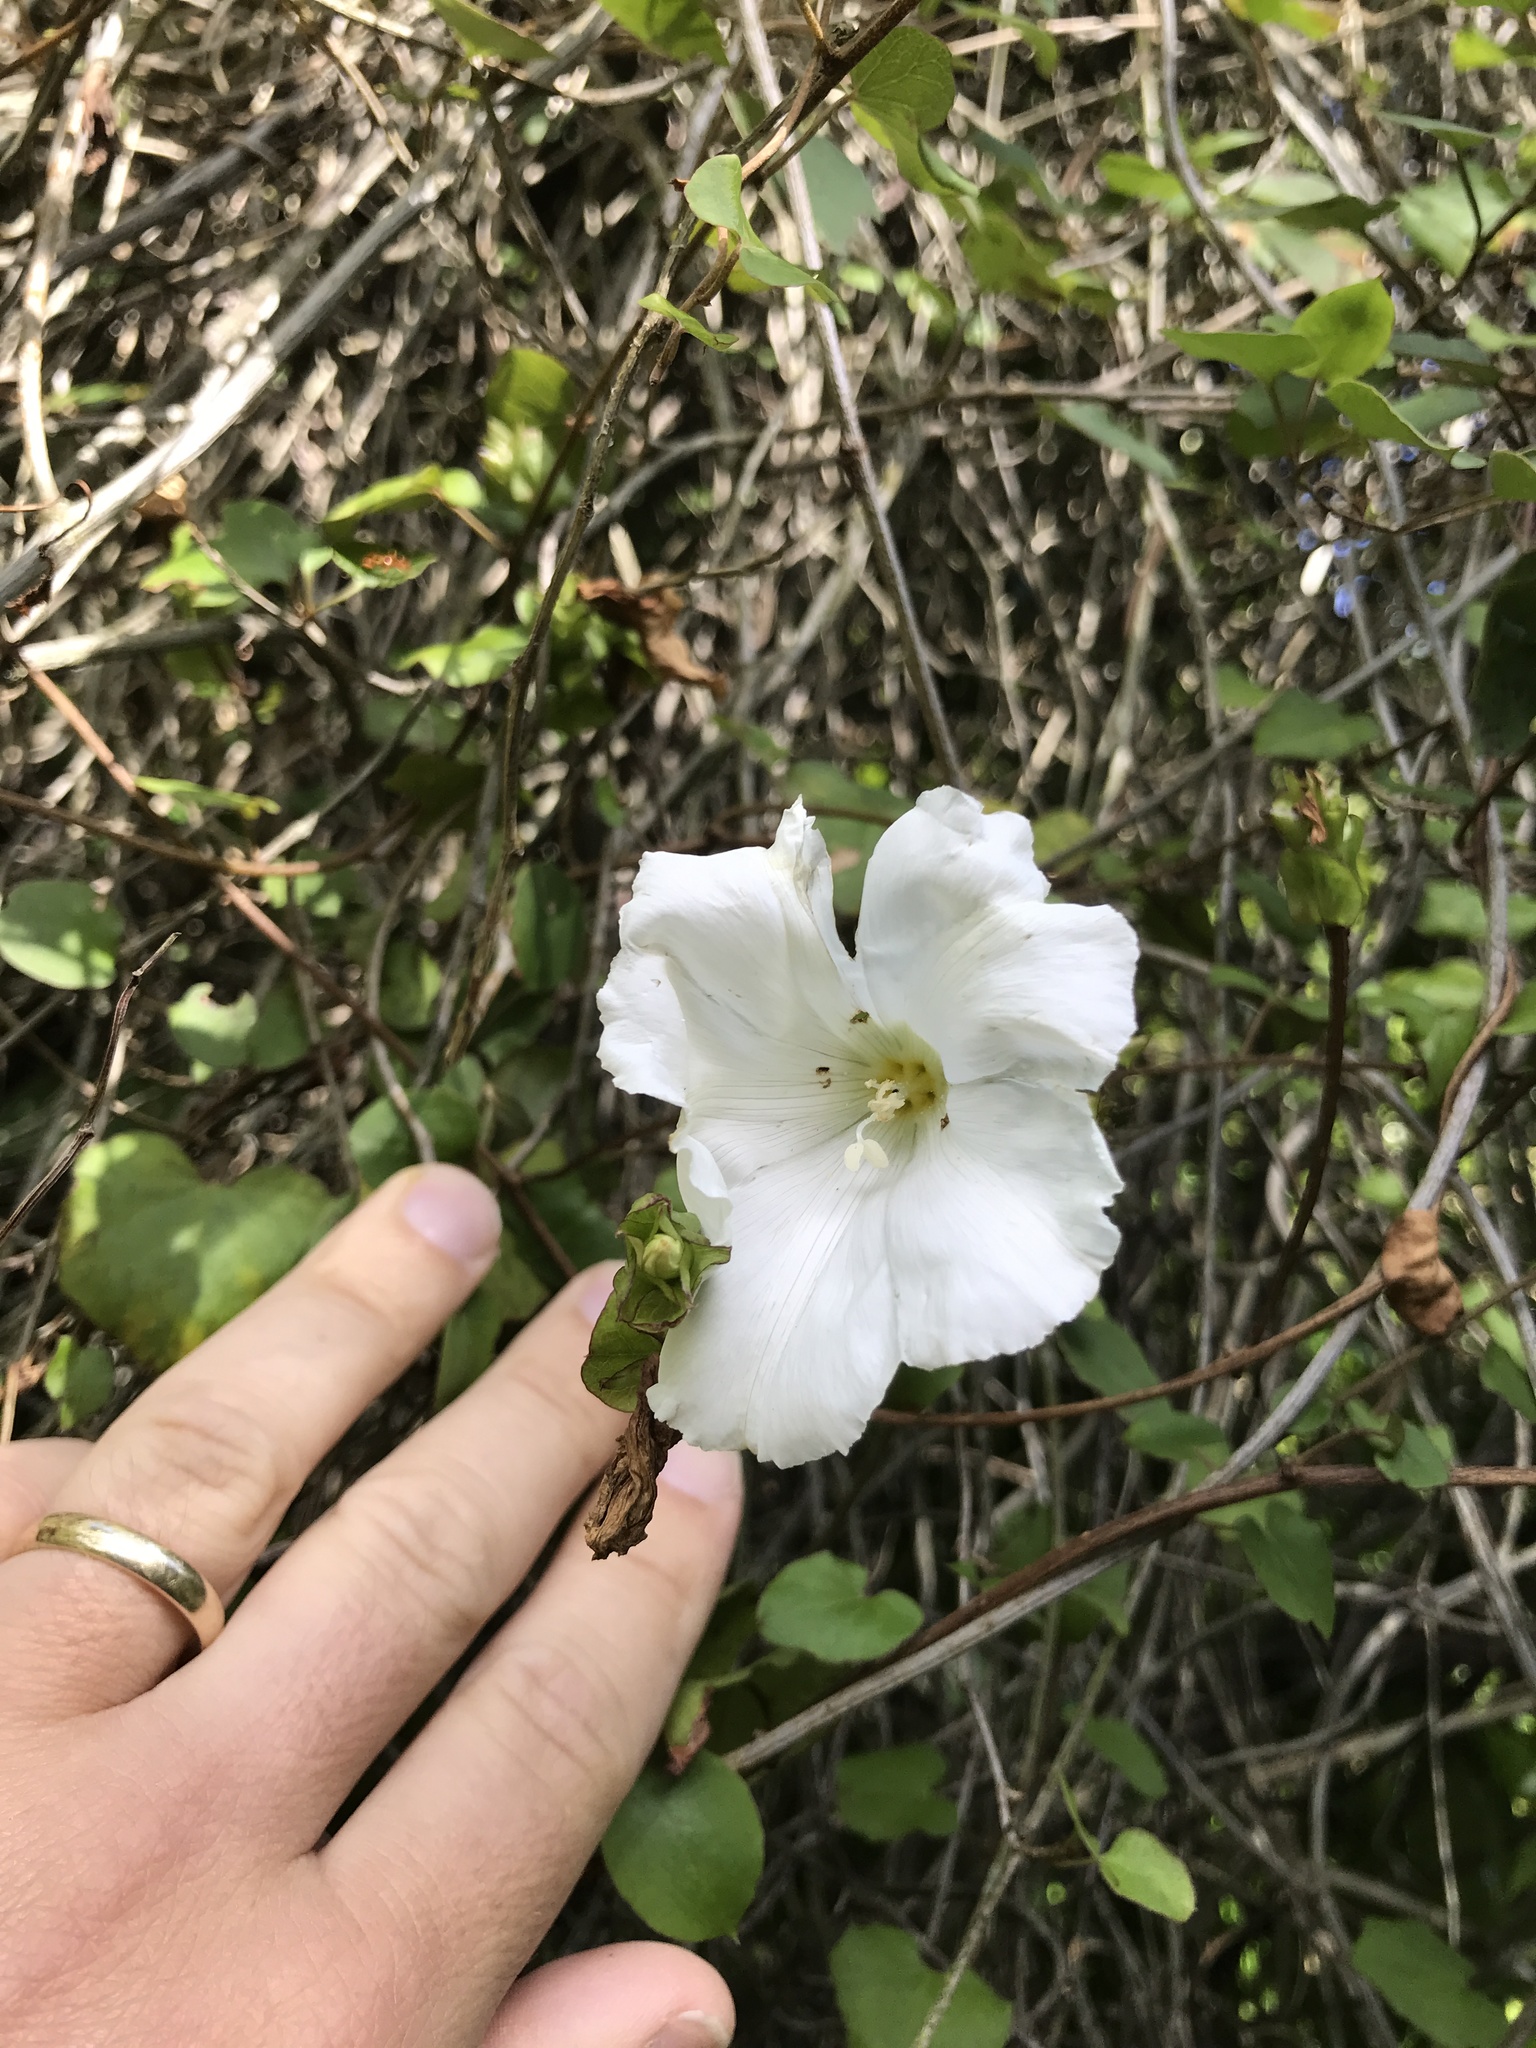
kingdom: Plantae
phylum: Tracheophyta
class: Magnoliopsida
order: Solanales
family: Convolvulaceae
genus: Calystegia
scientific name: Calystegia tuguriorum
